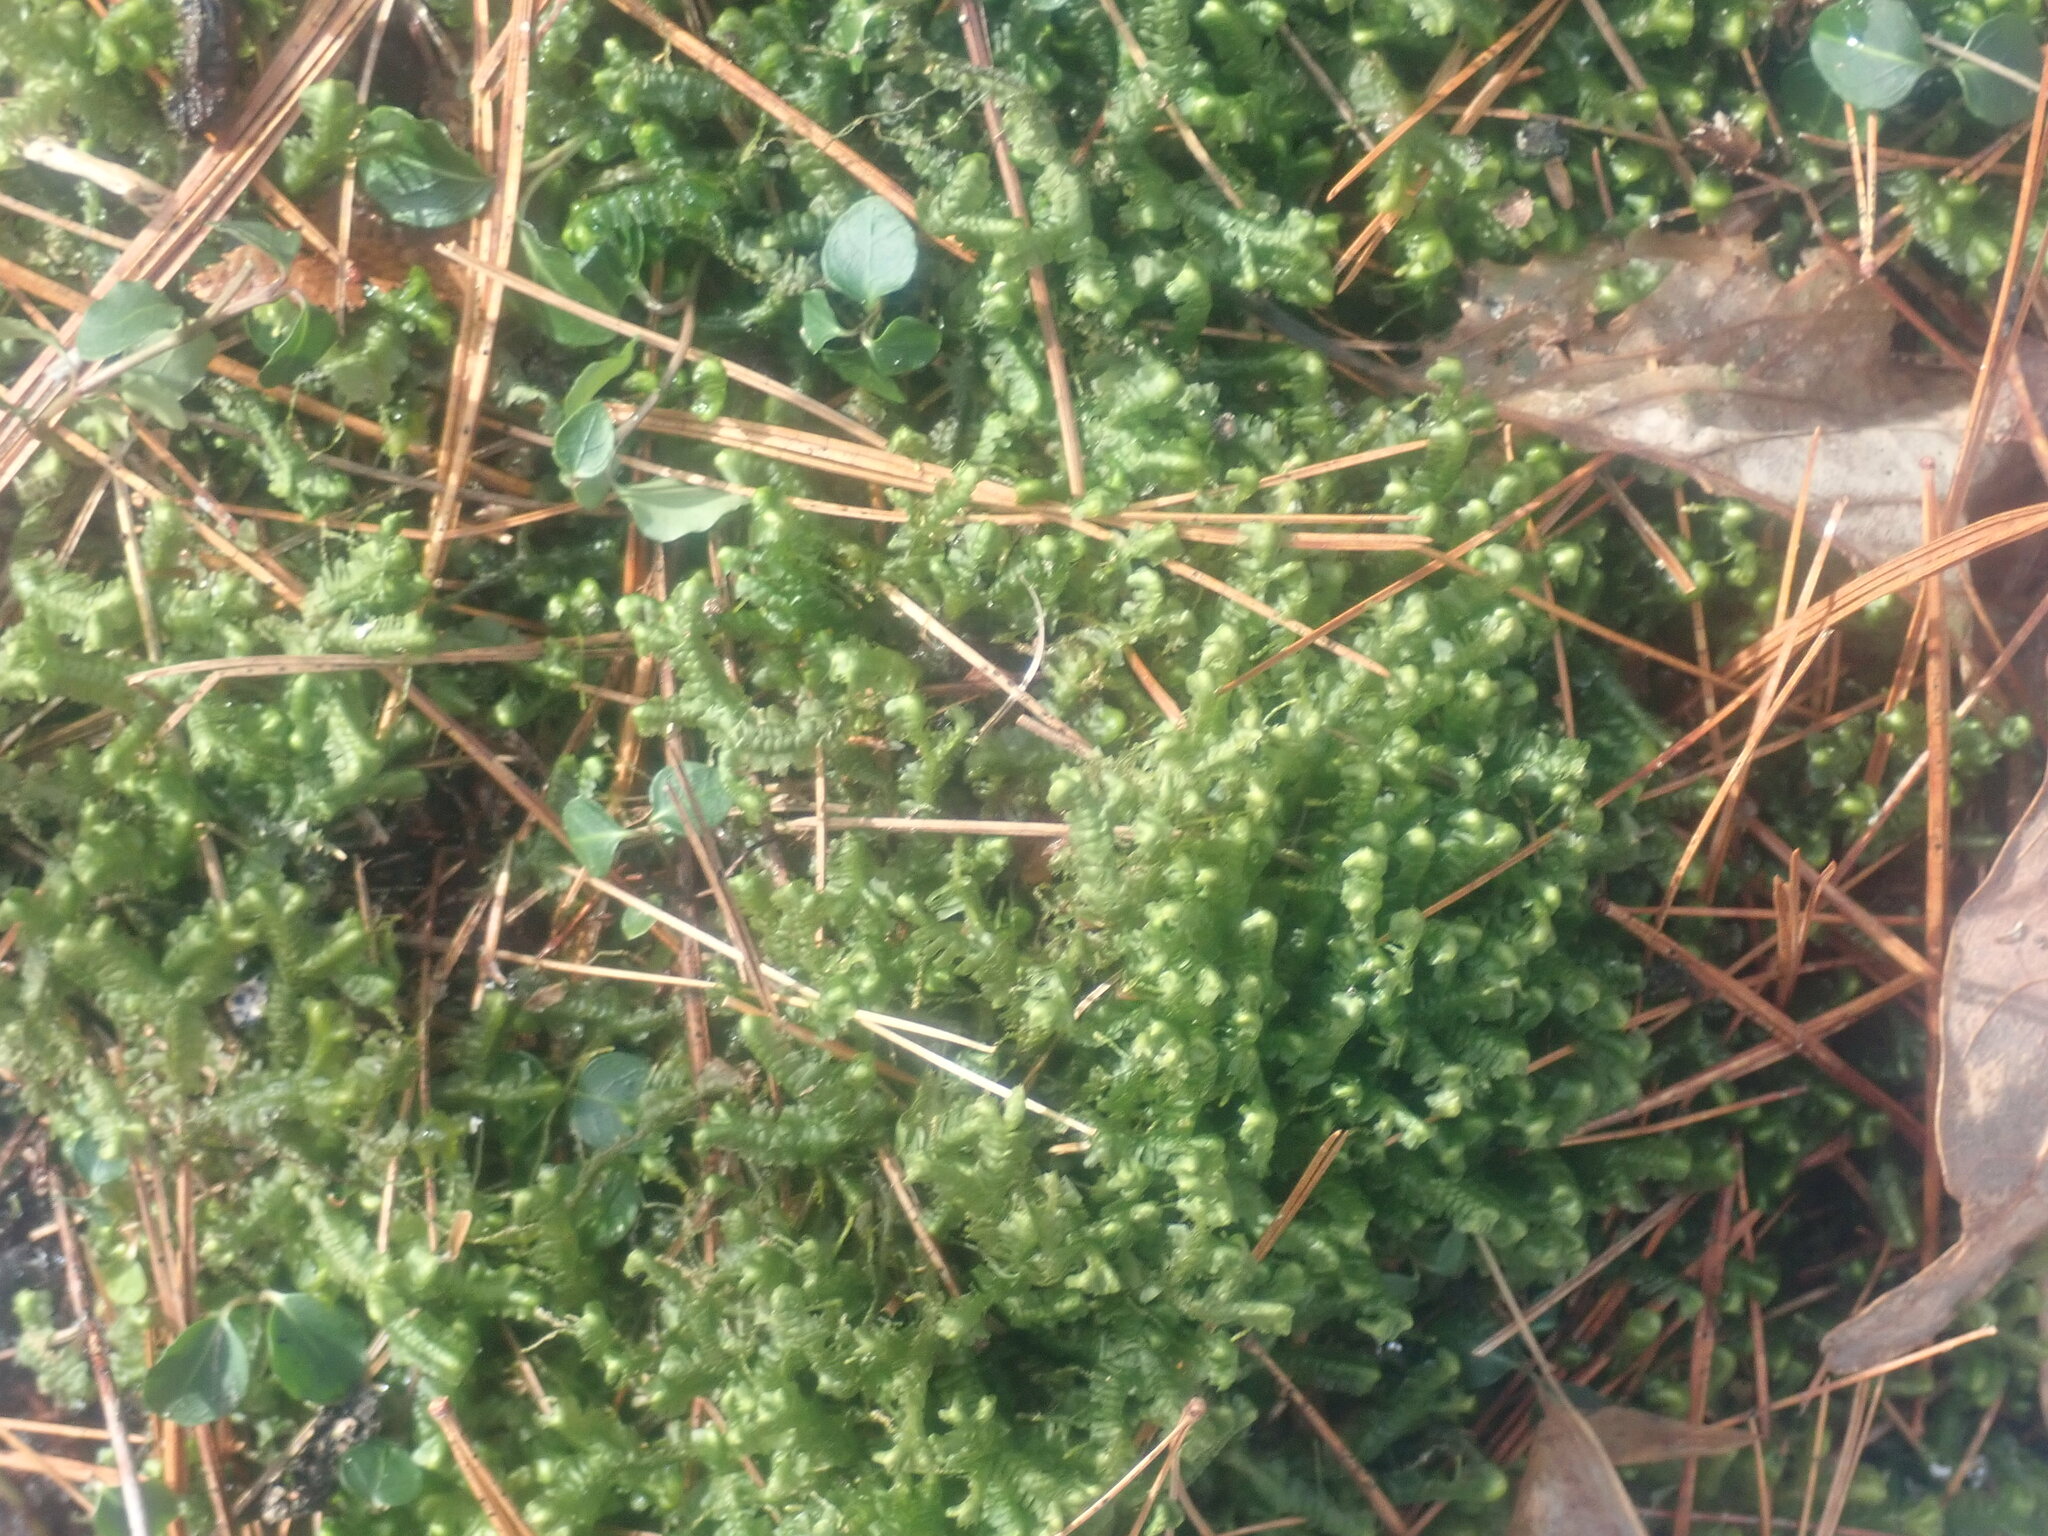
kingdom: Plantae
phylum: Marchantiophyta
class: Jungermanniopsida
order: Jungermanniales
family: Lepidoziaceae
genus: Bazzania
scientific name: Bazzania trilobata
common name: Three-lobed whipwort
